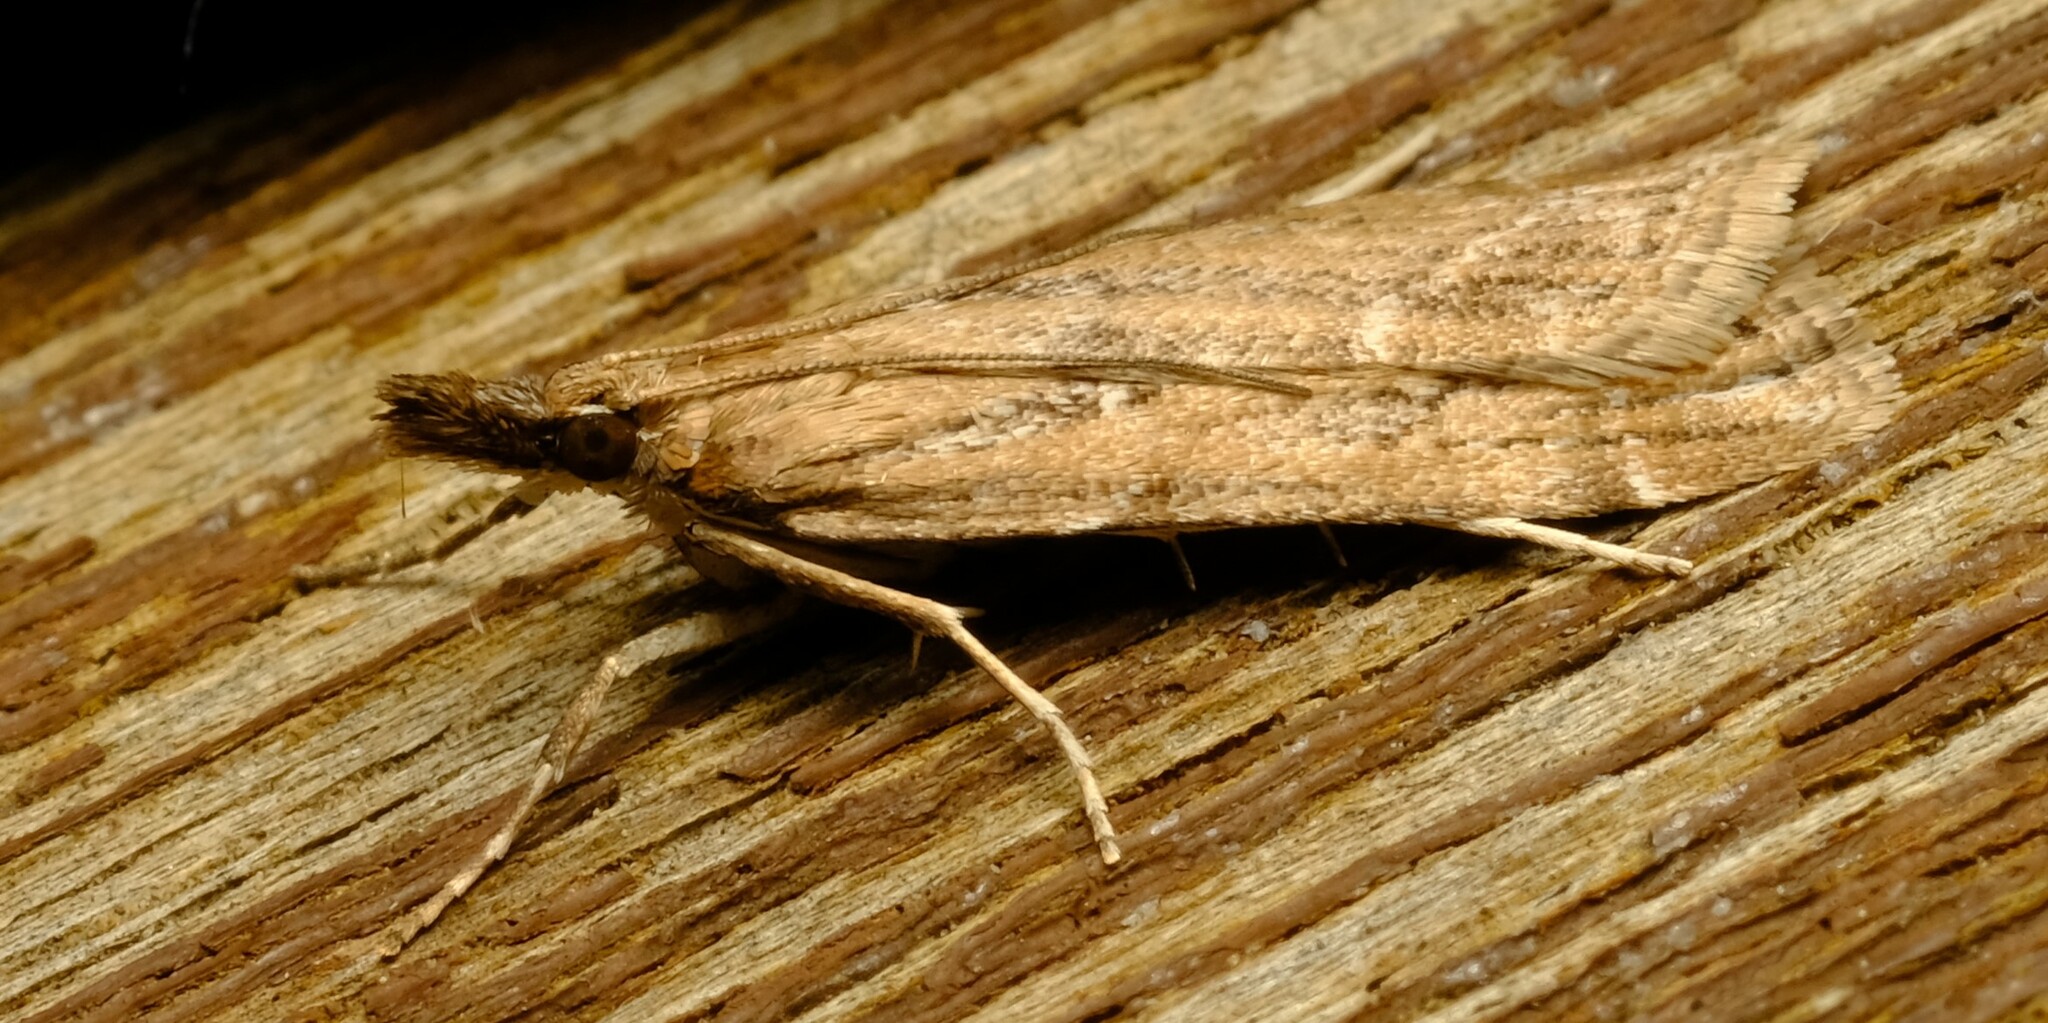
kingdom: Animalia
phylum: Arthropoda
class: Insecta
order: Lepidoptera
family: Crambidae
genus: Eudonia
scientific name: Eudonia cleodoralis
